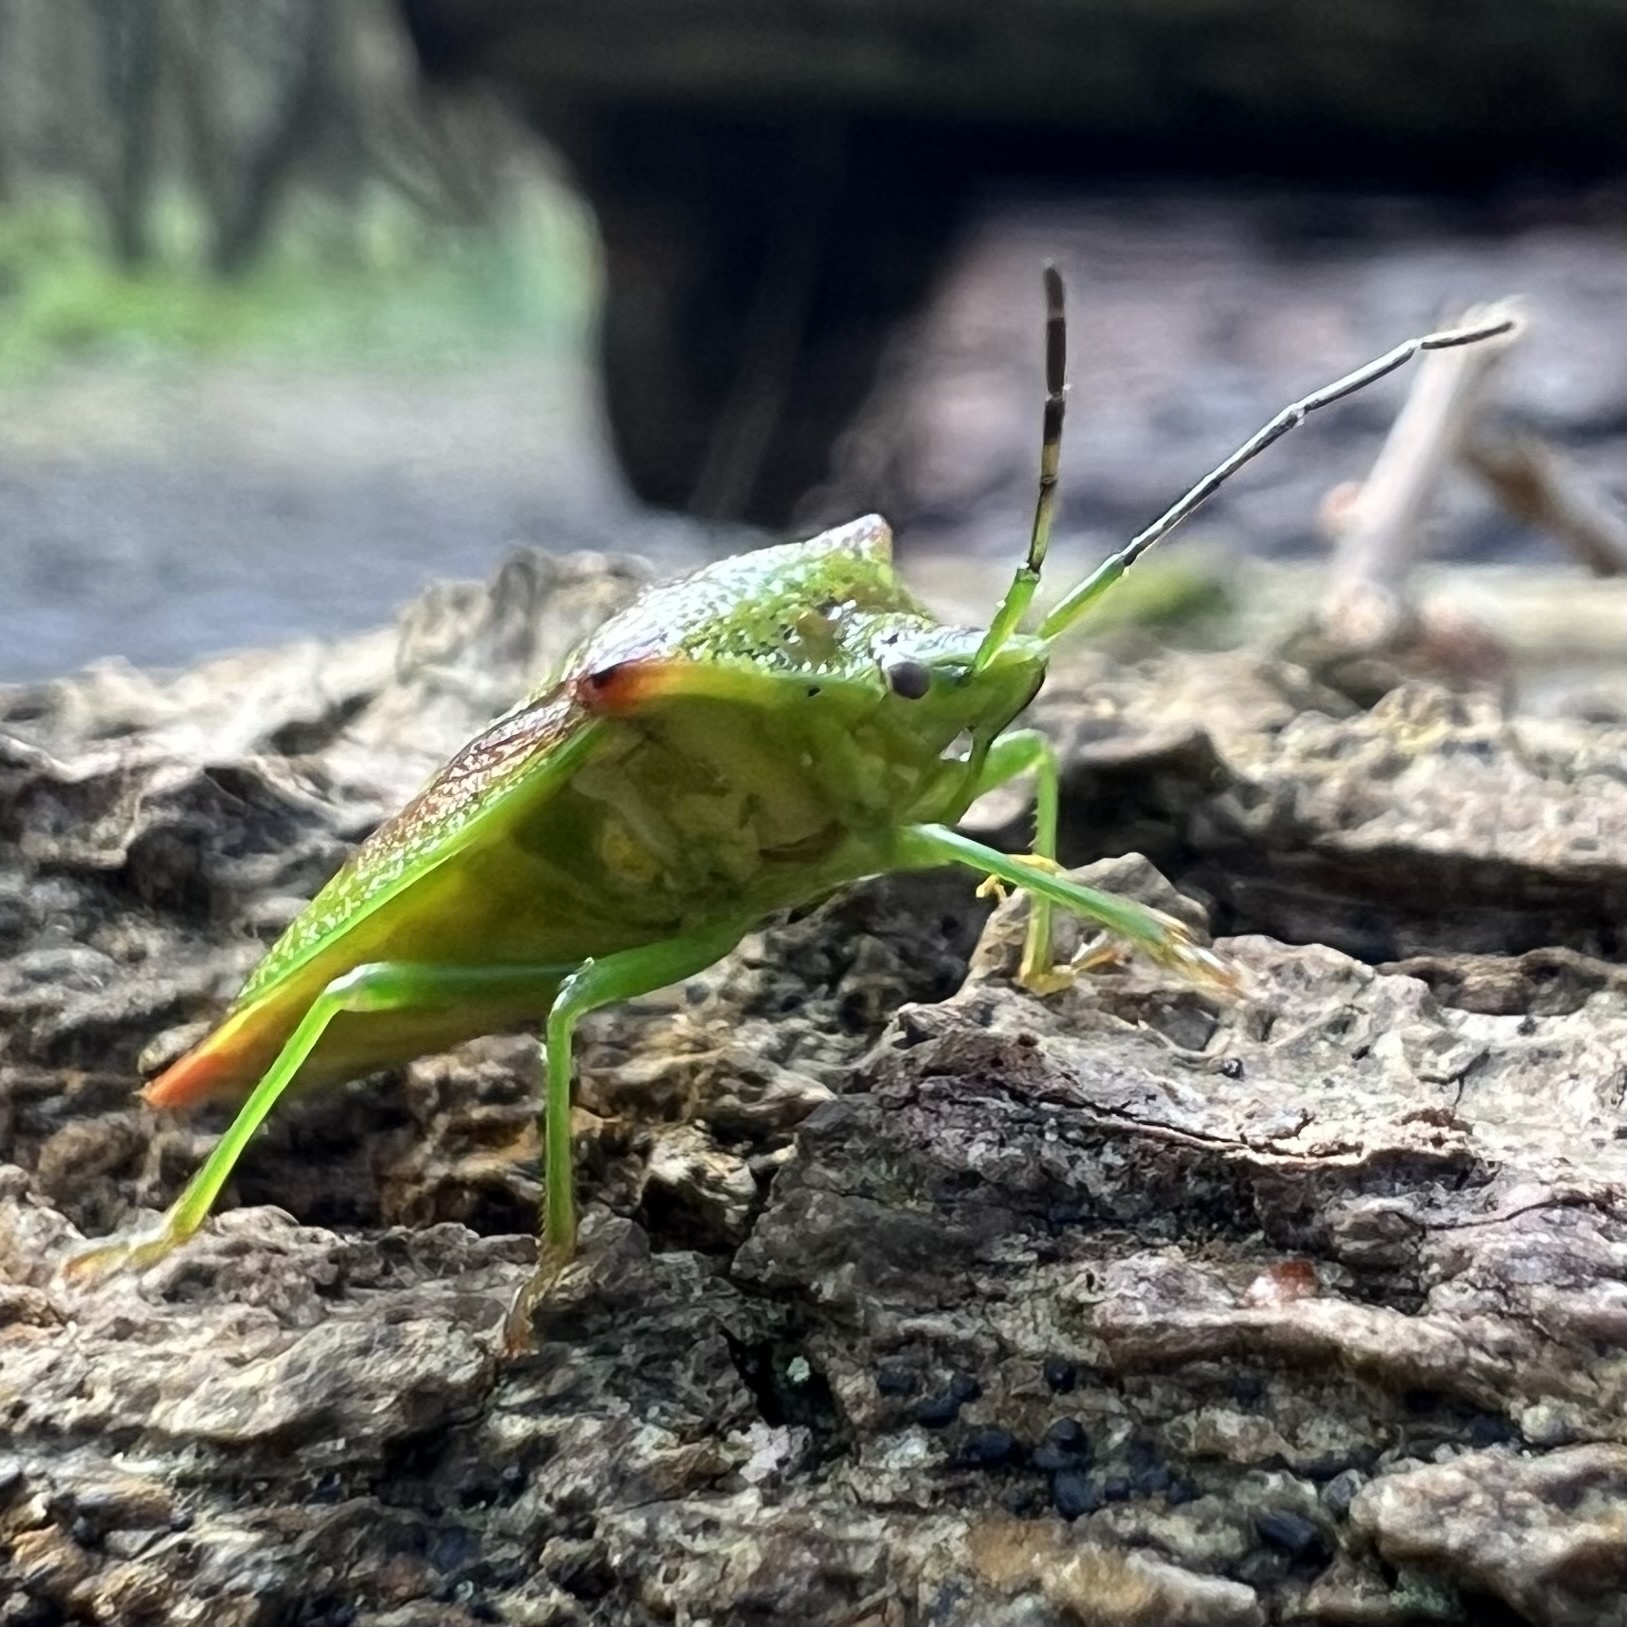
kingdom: Animalia
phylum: Arthropoda
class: Insecta
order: Hemiptera
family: Acanthosomatidae
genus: Acanthosoma
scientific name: Acanthosoma haemorrhoidale
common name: Hawthorn shieldbug
